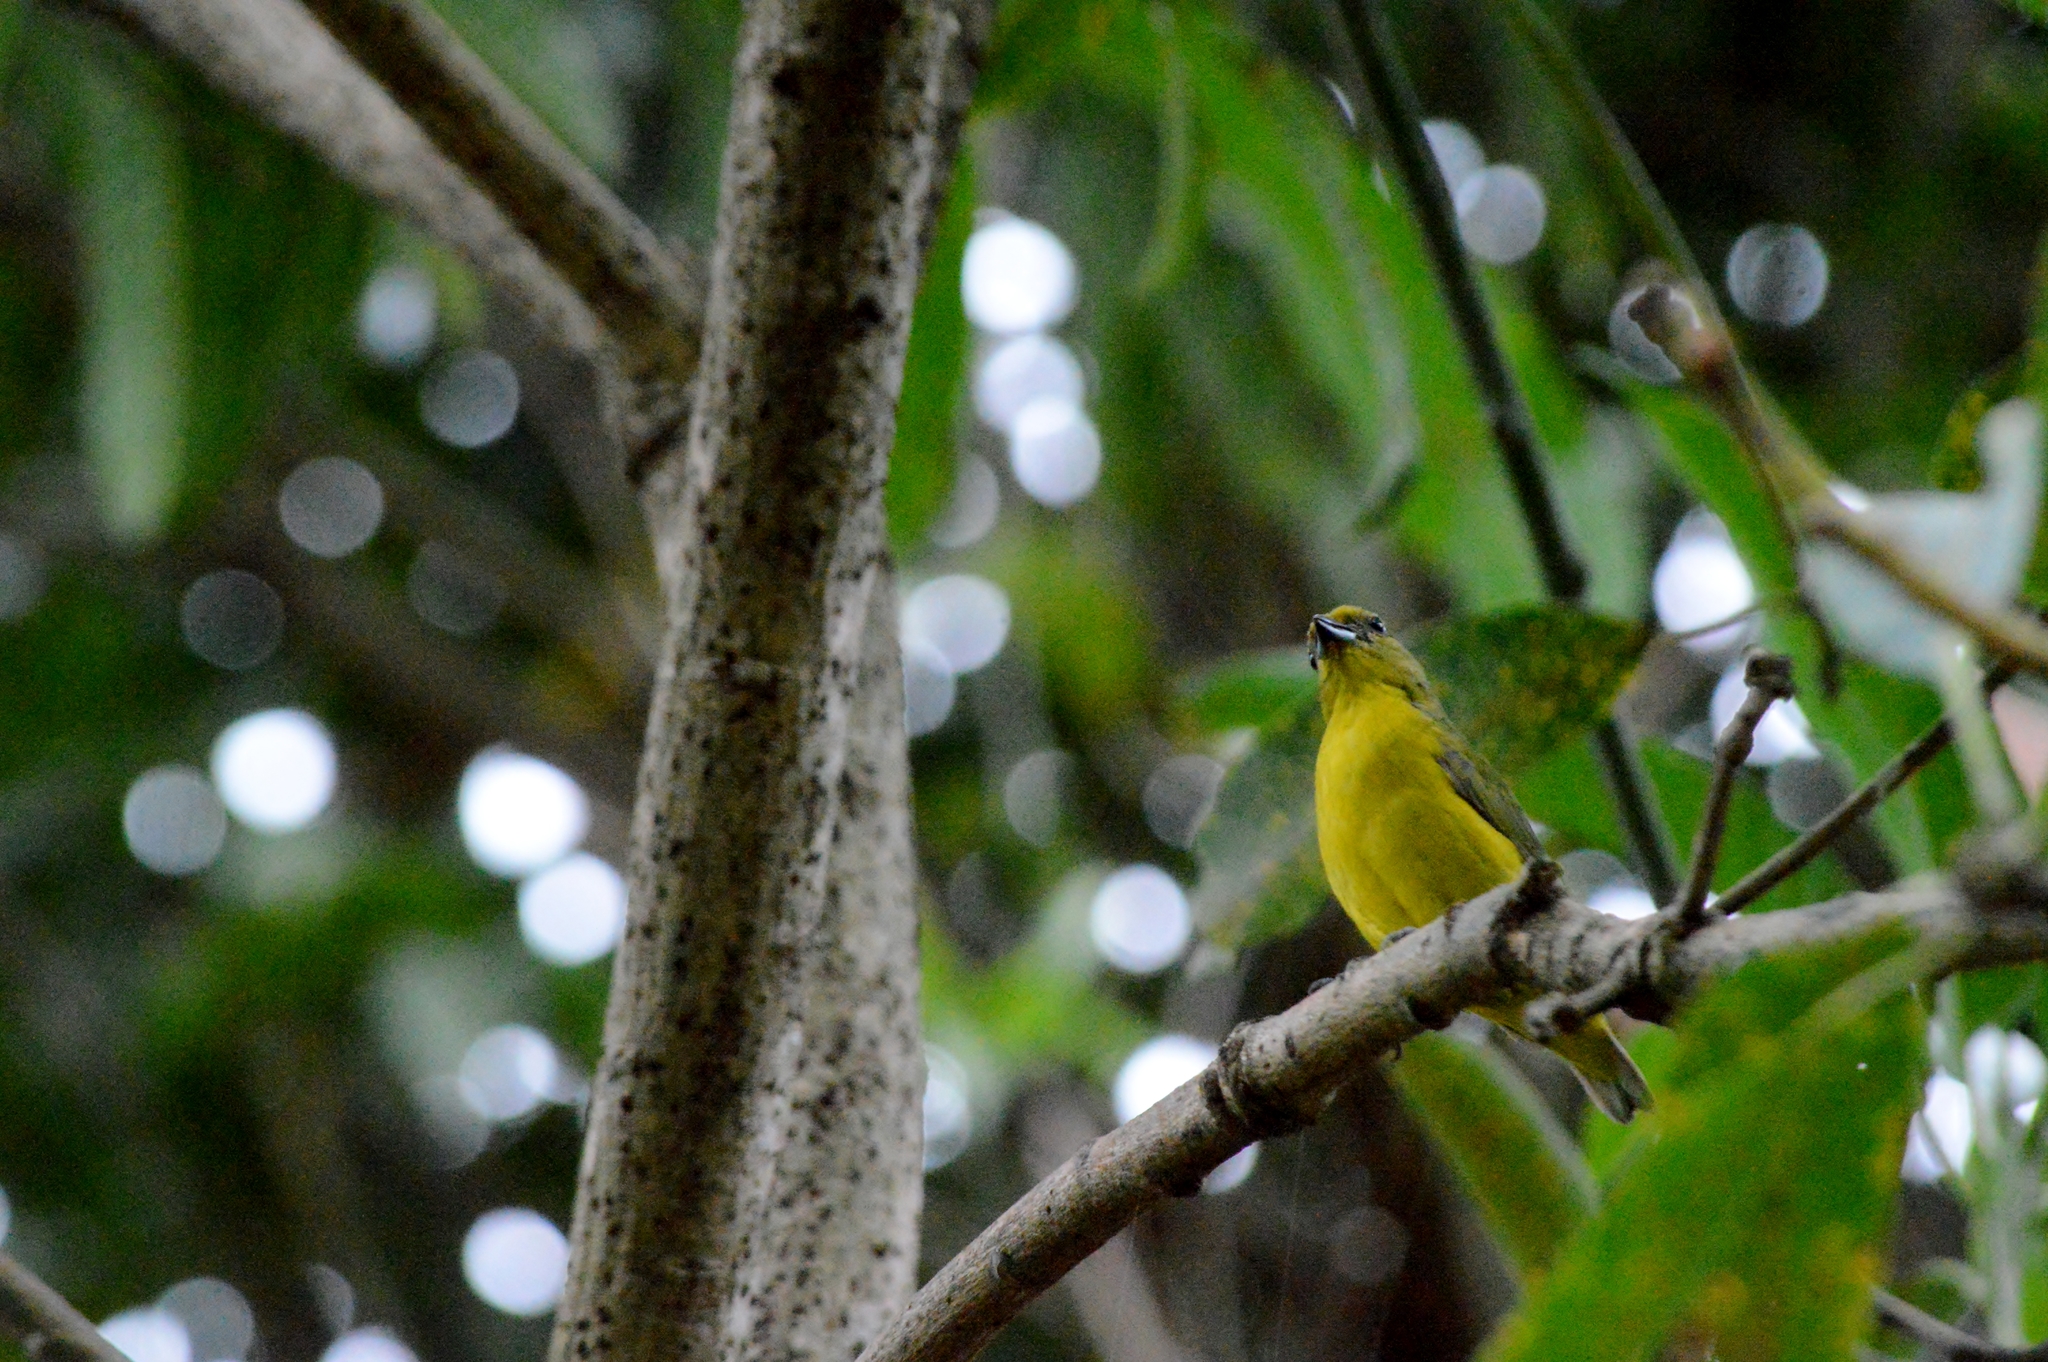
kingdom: Animalia
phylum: Chordata
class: Aves
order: Passeriformes
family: Fringillidae
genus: Euphonia
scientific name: Euphonia violacea
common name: Violaceous euphonia
